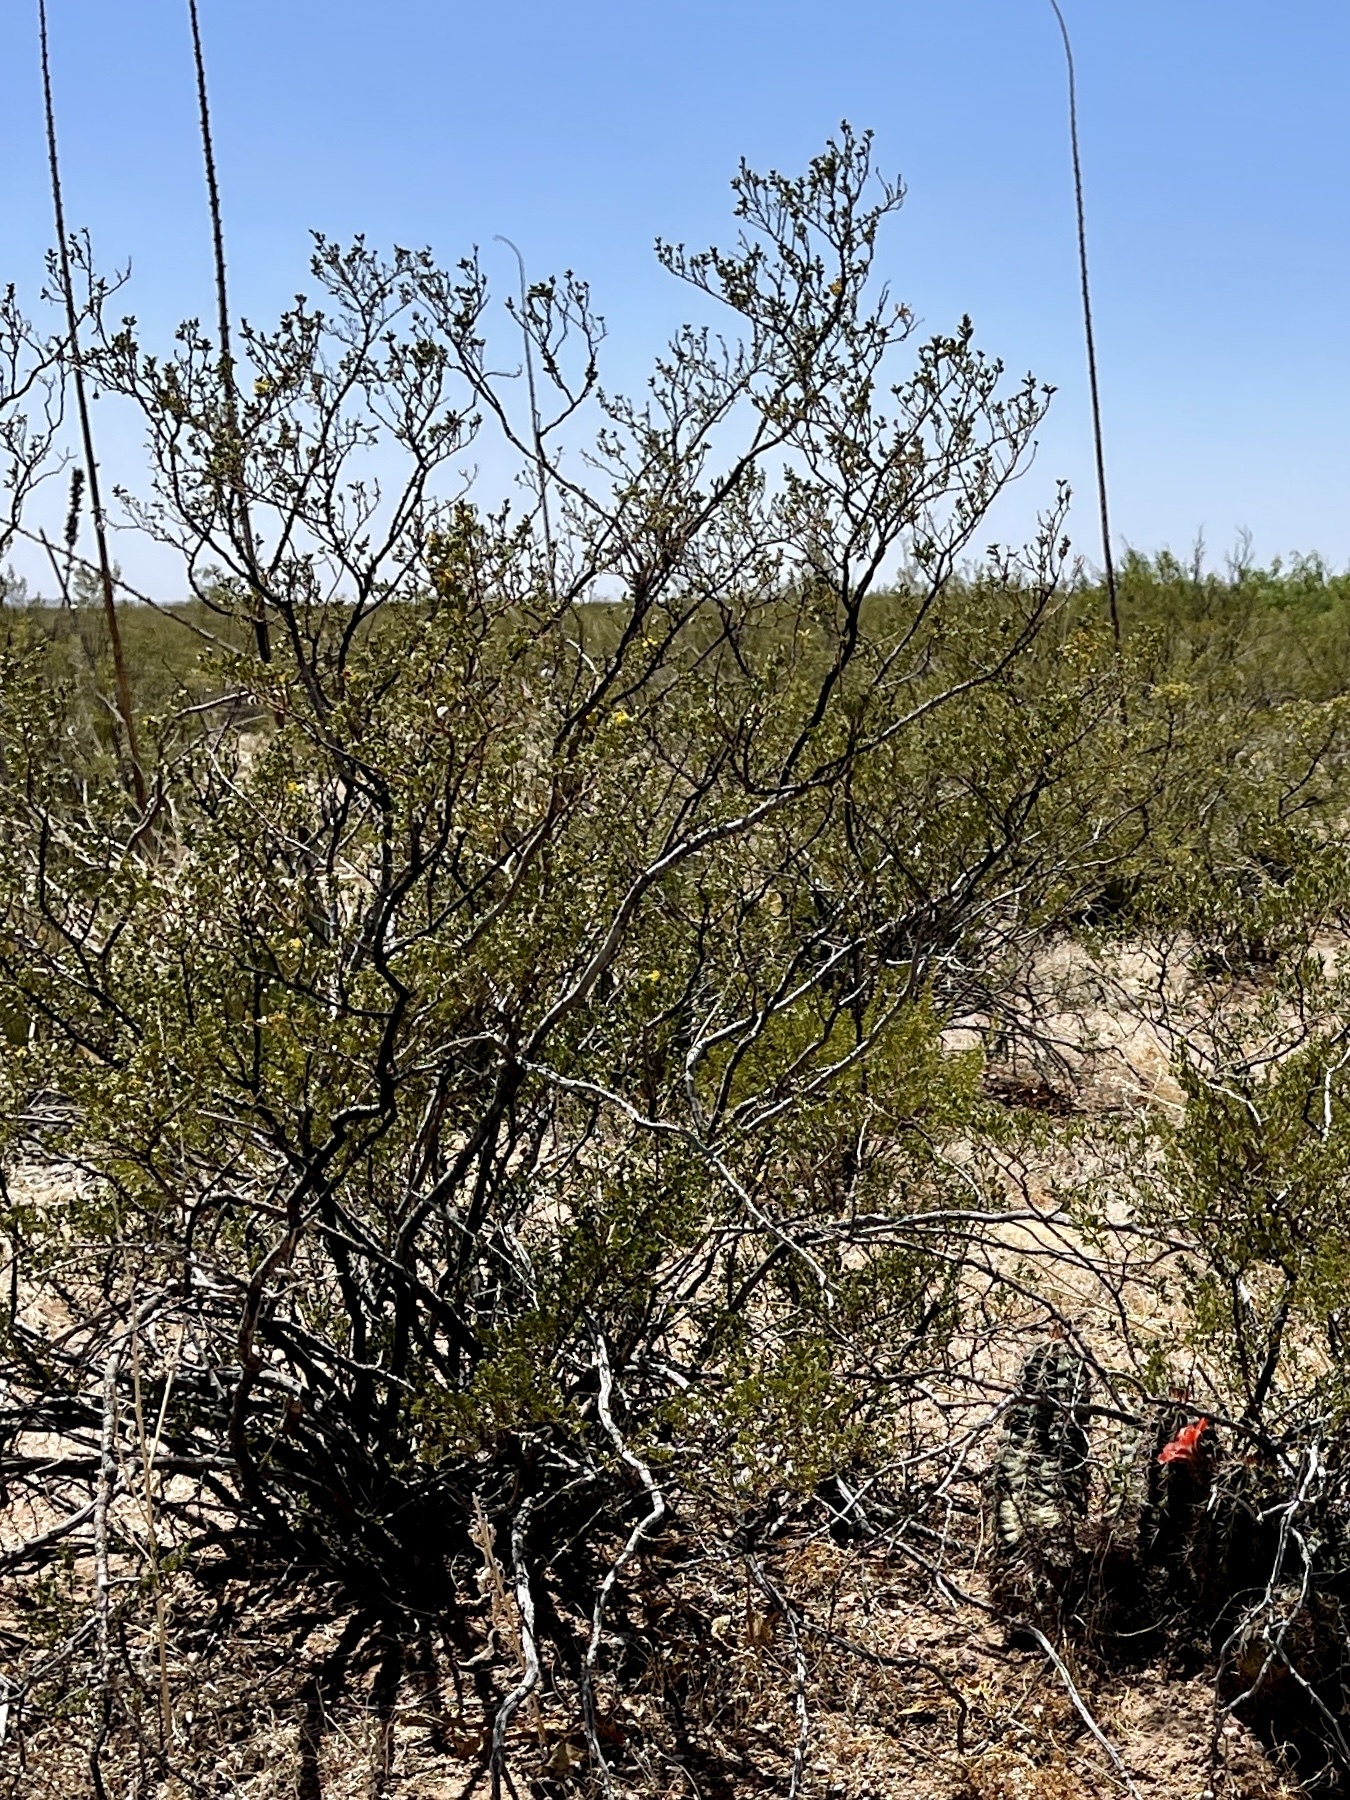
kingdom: Plantae
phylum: Tracheophyta
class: Magnoliopsida
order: Zygophyllales
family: Zygophyllaceae
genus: Larrea
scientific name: Larrea tridentata
